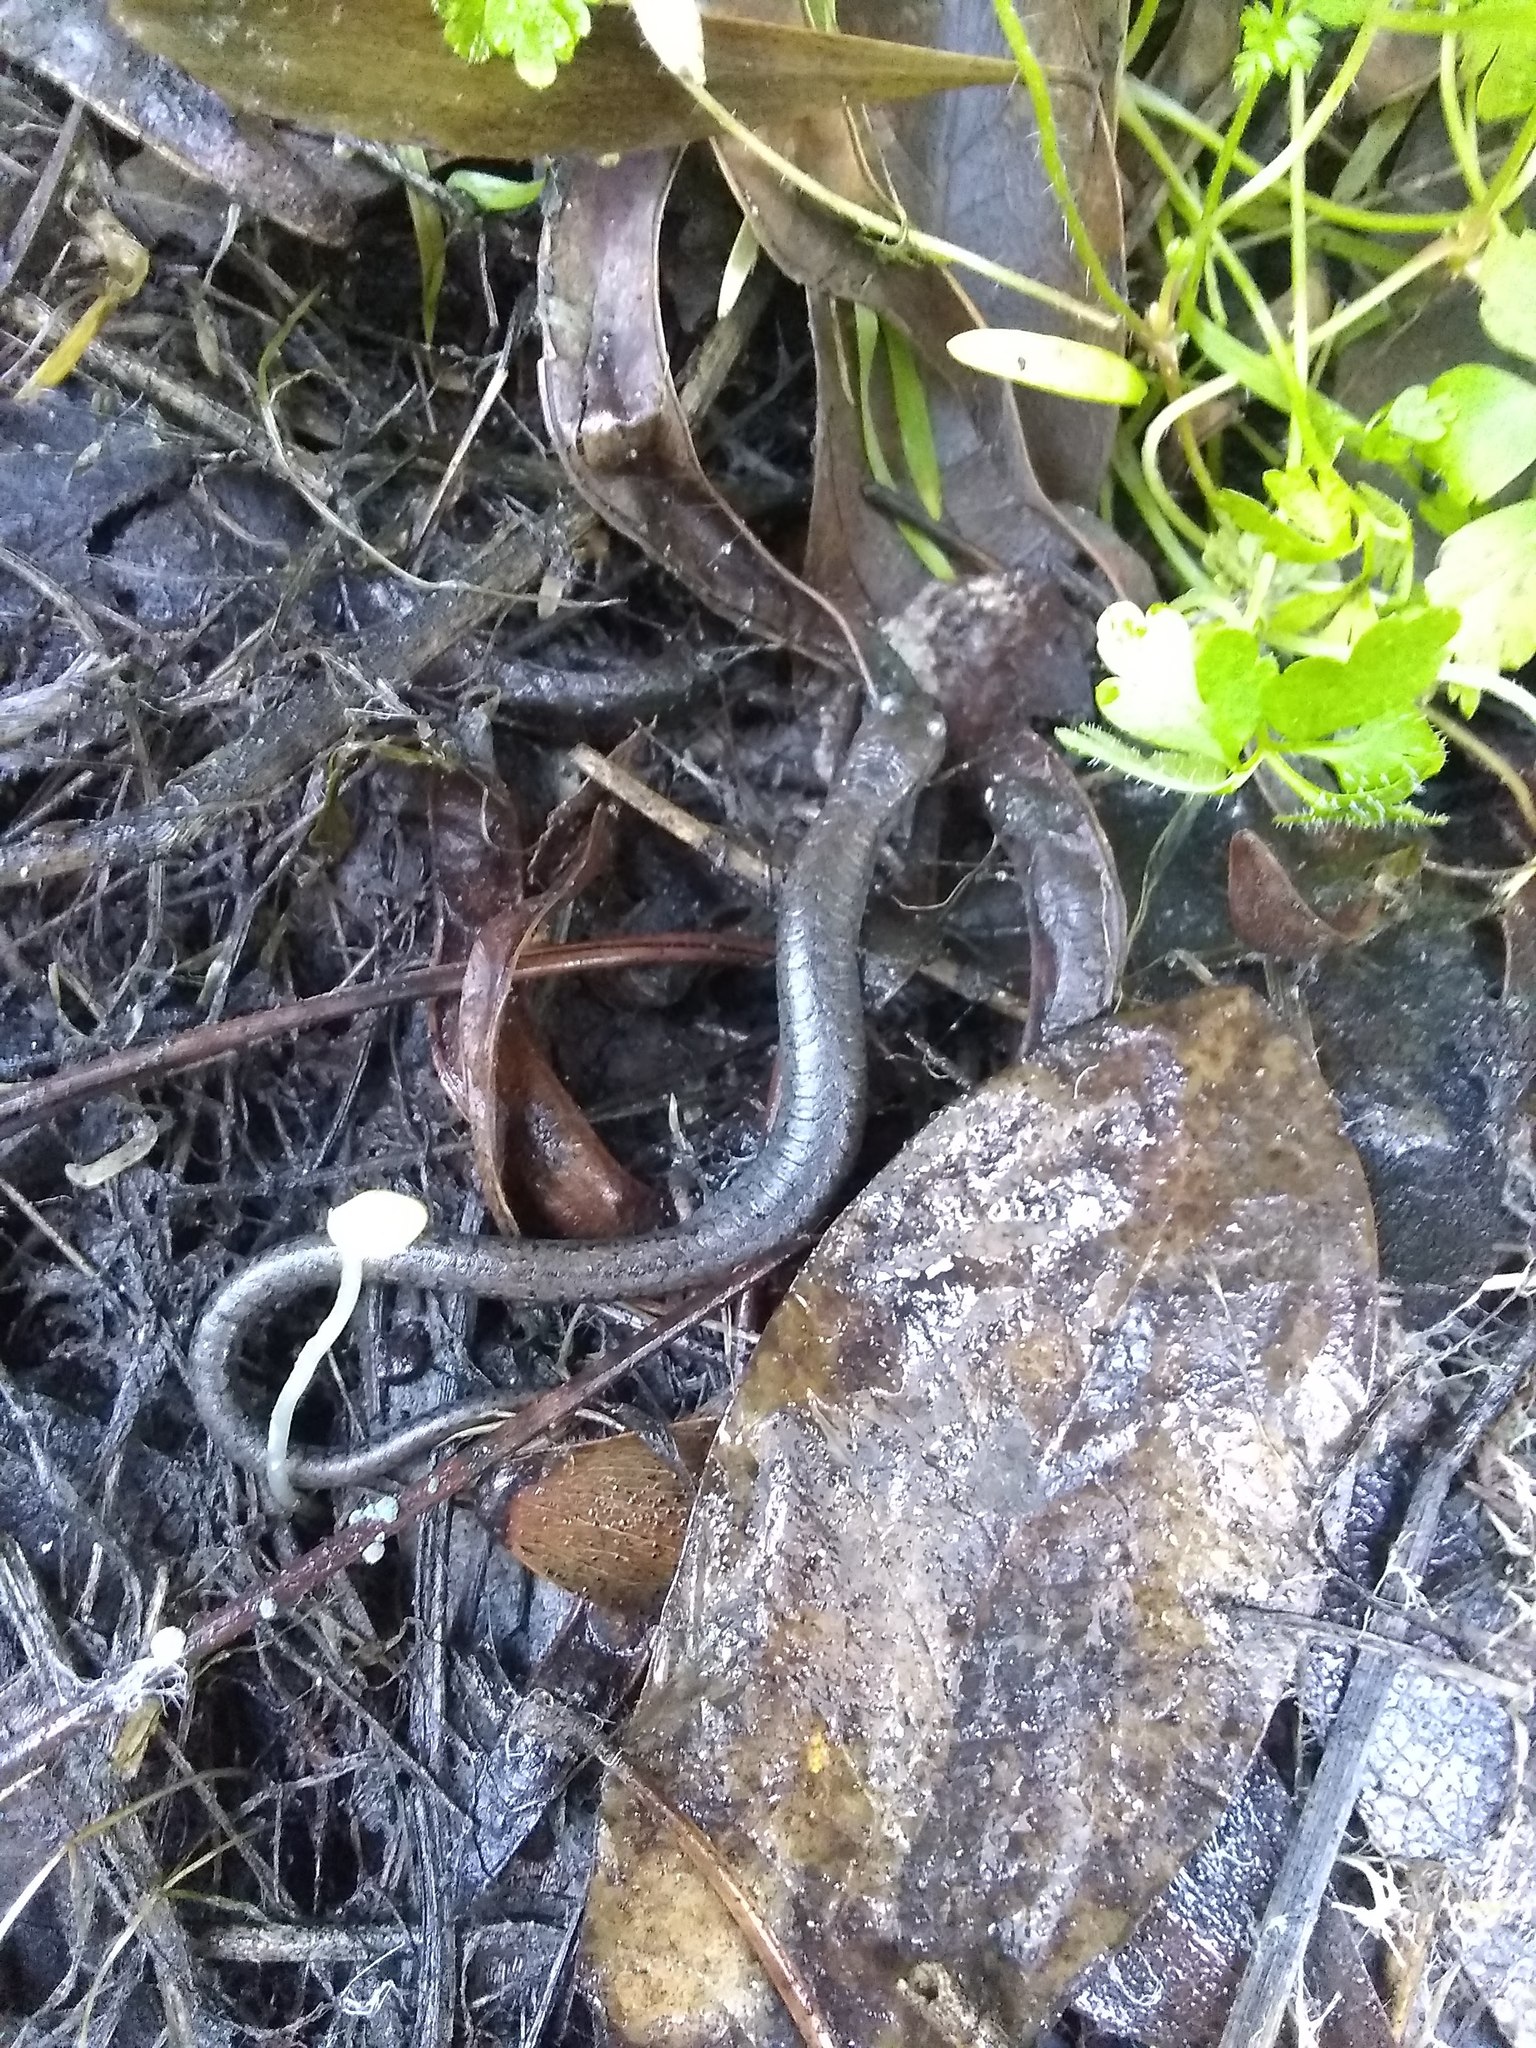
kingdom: Animalia
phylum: Chordata
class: Amphibia
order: Caudata
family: Plethodontidae
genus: Batrachoseps
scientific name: Batrachoseps attenuatus
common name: California slender salamander
